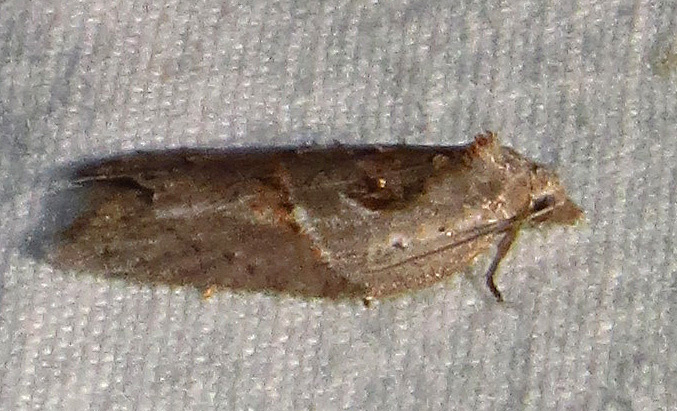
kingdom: Animalia
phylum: Arthropoda
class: Insecta
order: Lepidoptera
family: Tortricidae
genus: Acleris
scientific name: Acleris maculidorsana
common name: Stained-back leafroller moth
